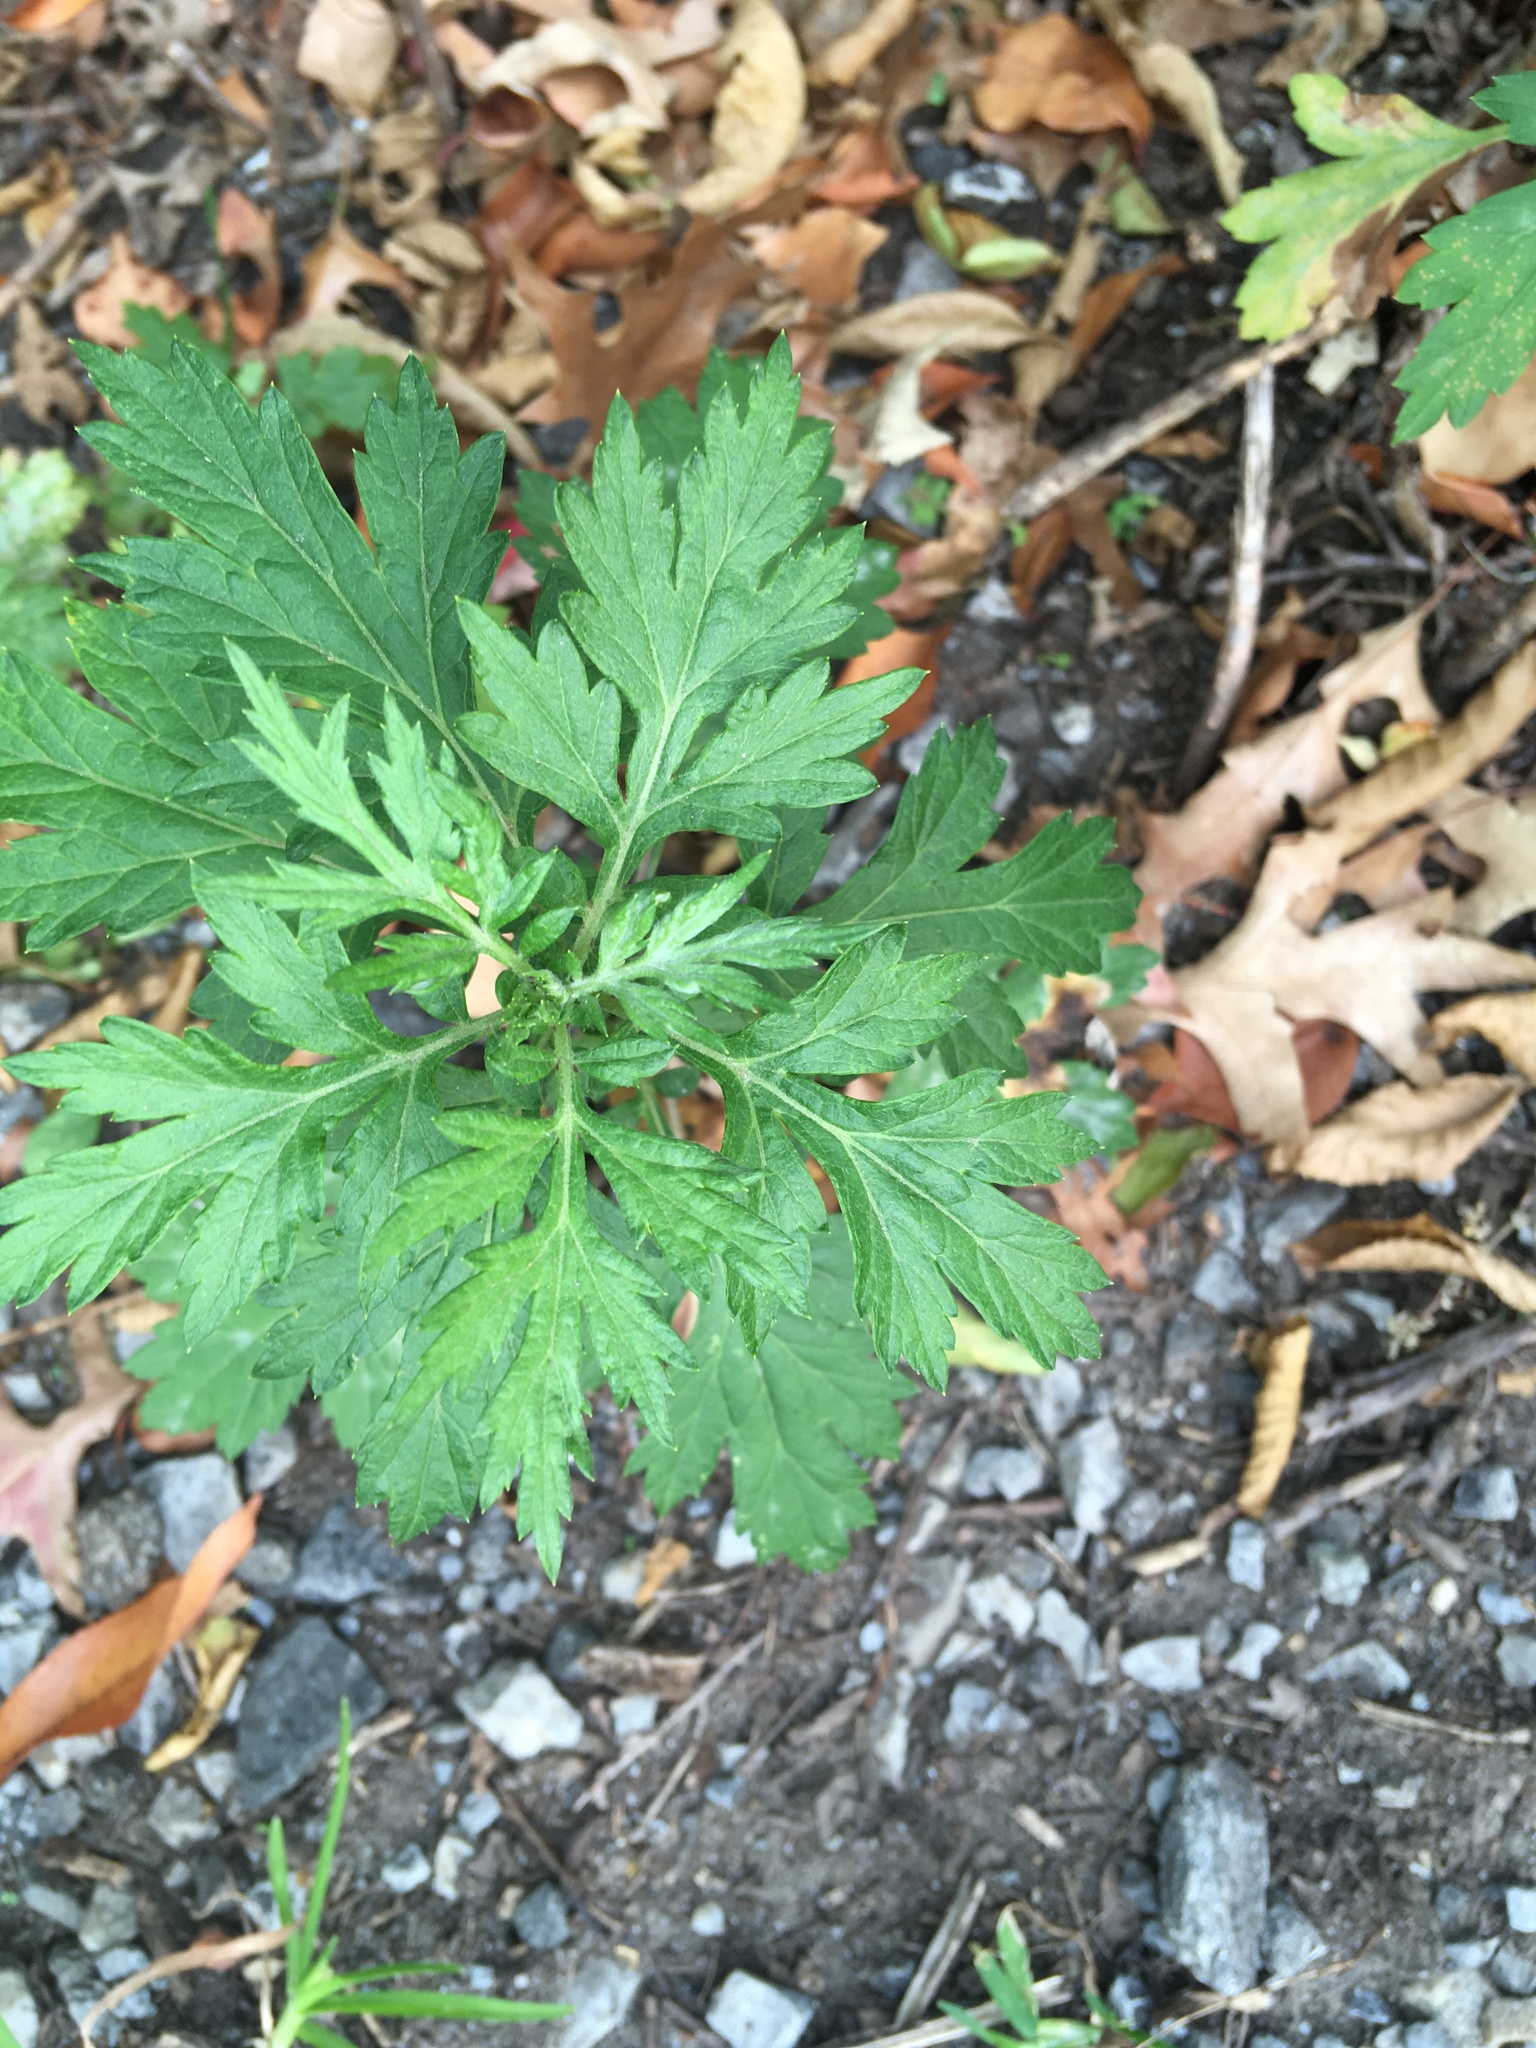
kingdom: Plantae
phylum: Tracheophyta
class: Magnoliopsida
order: Asterales
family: Asteraceae
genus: Artemisia
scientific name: Artemisia vulgaris
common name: Mugwort
